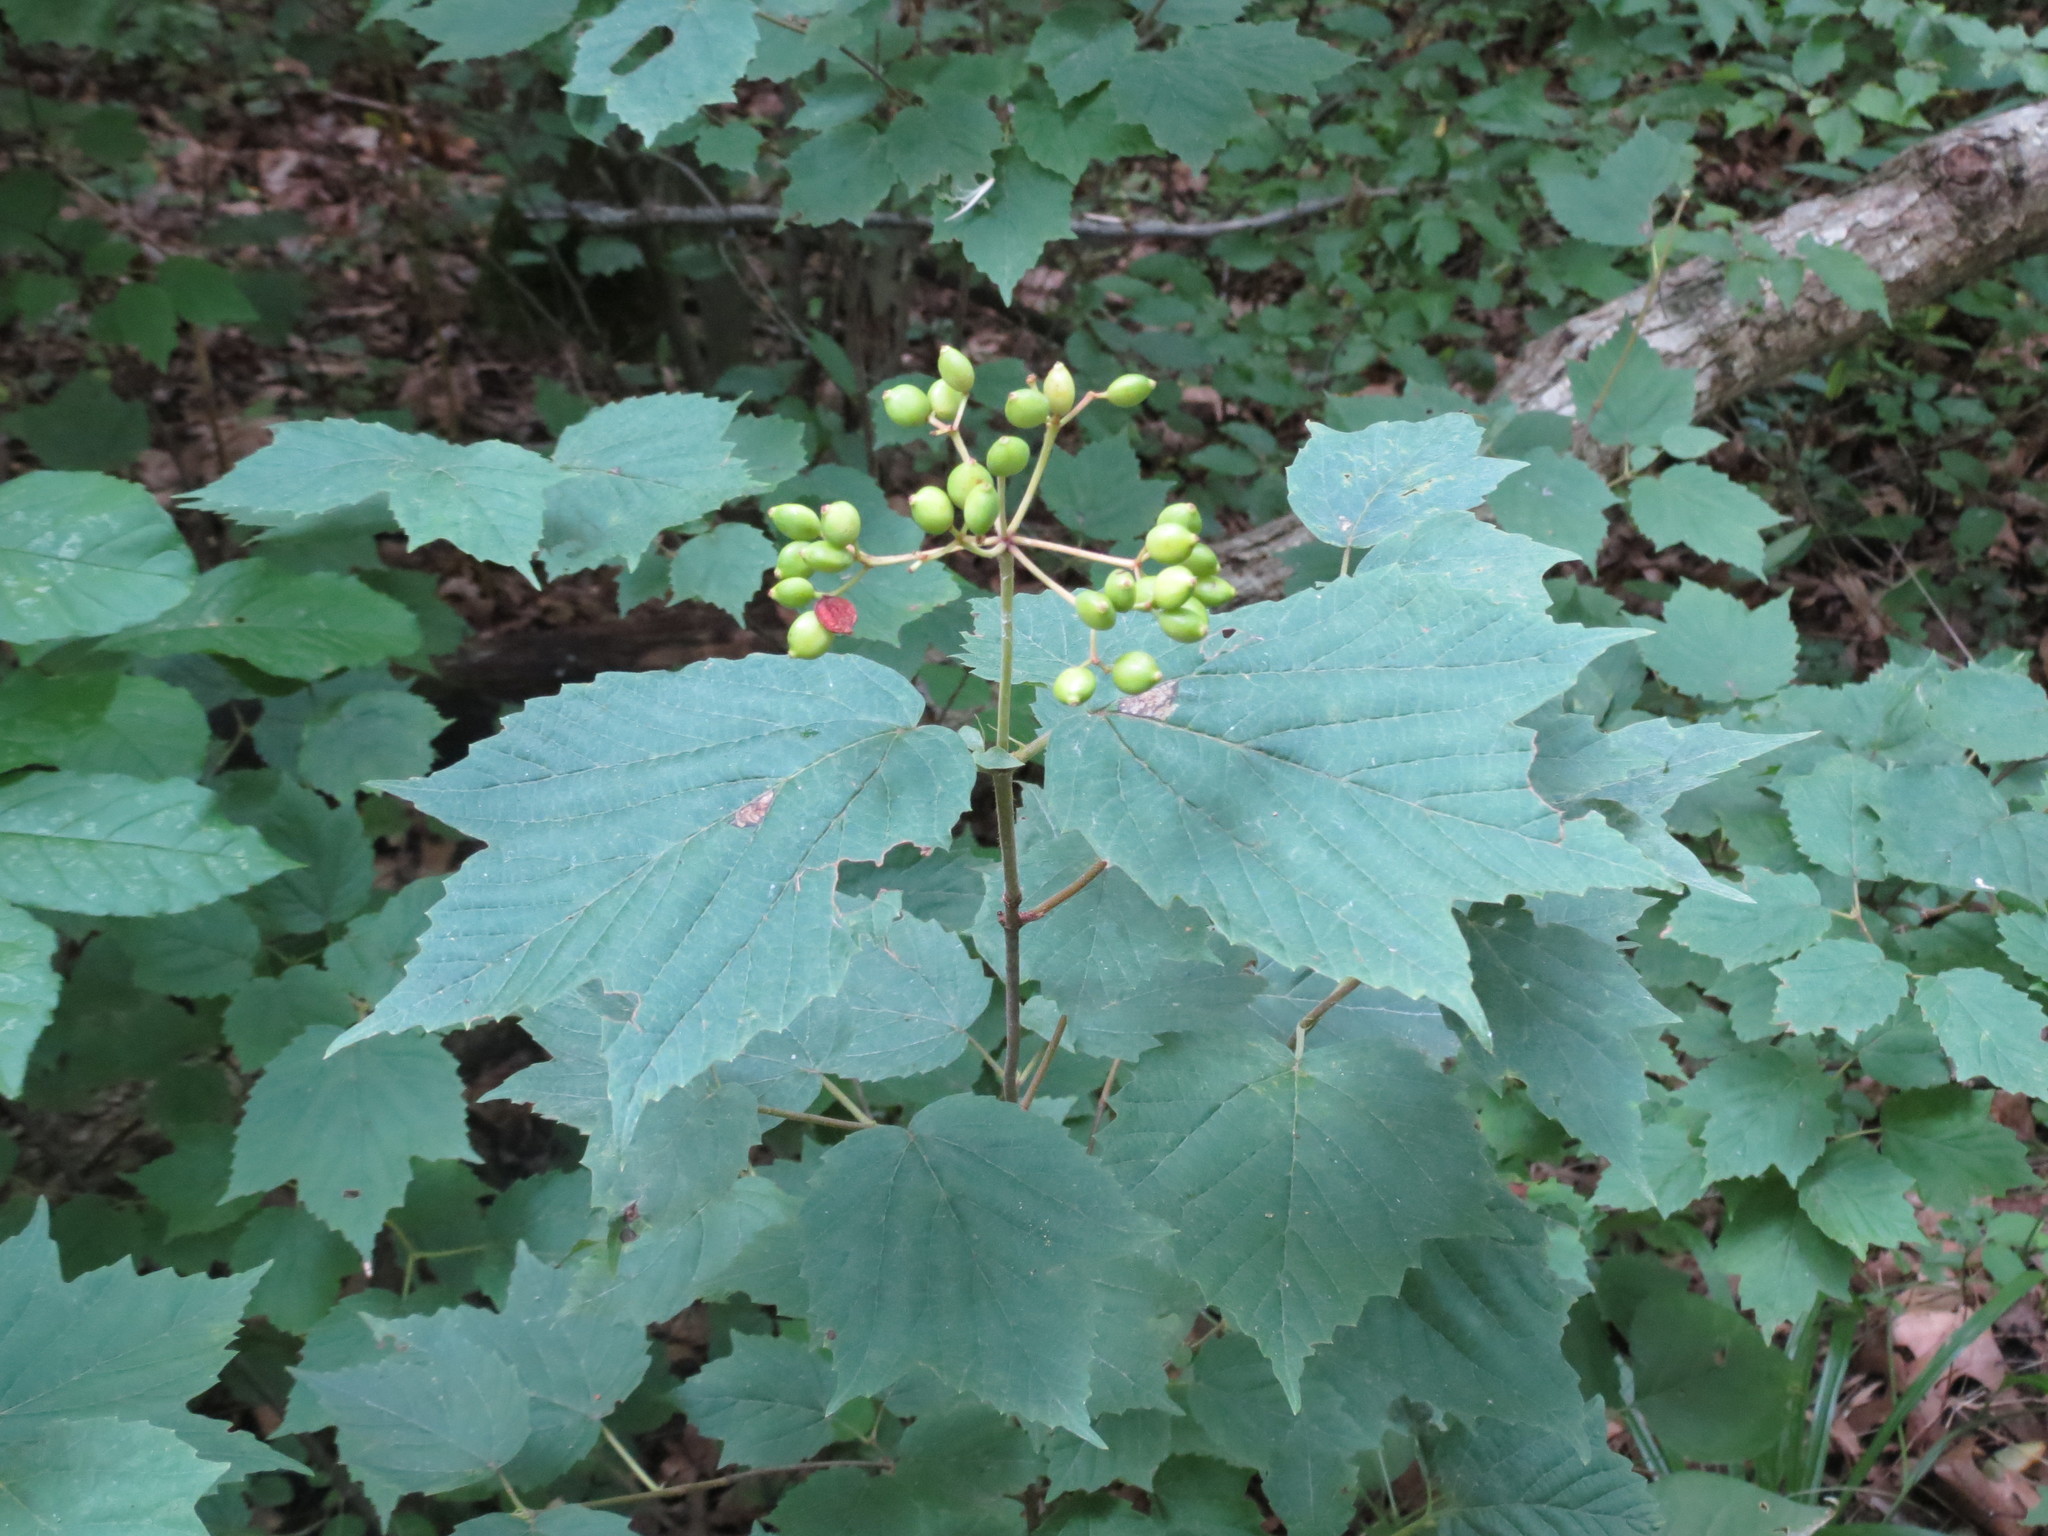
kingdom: Plantae
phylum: Tracheophyta
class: Magnoliopsida
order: Dipsacales
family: Viburnaceae
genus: Viburnum
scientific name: Viburnum acerifolium
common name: Dockmackie
